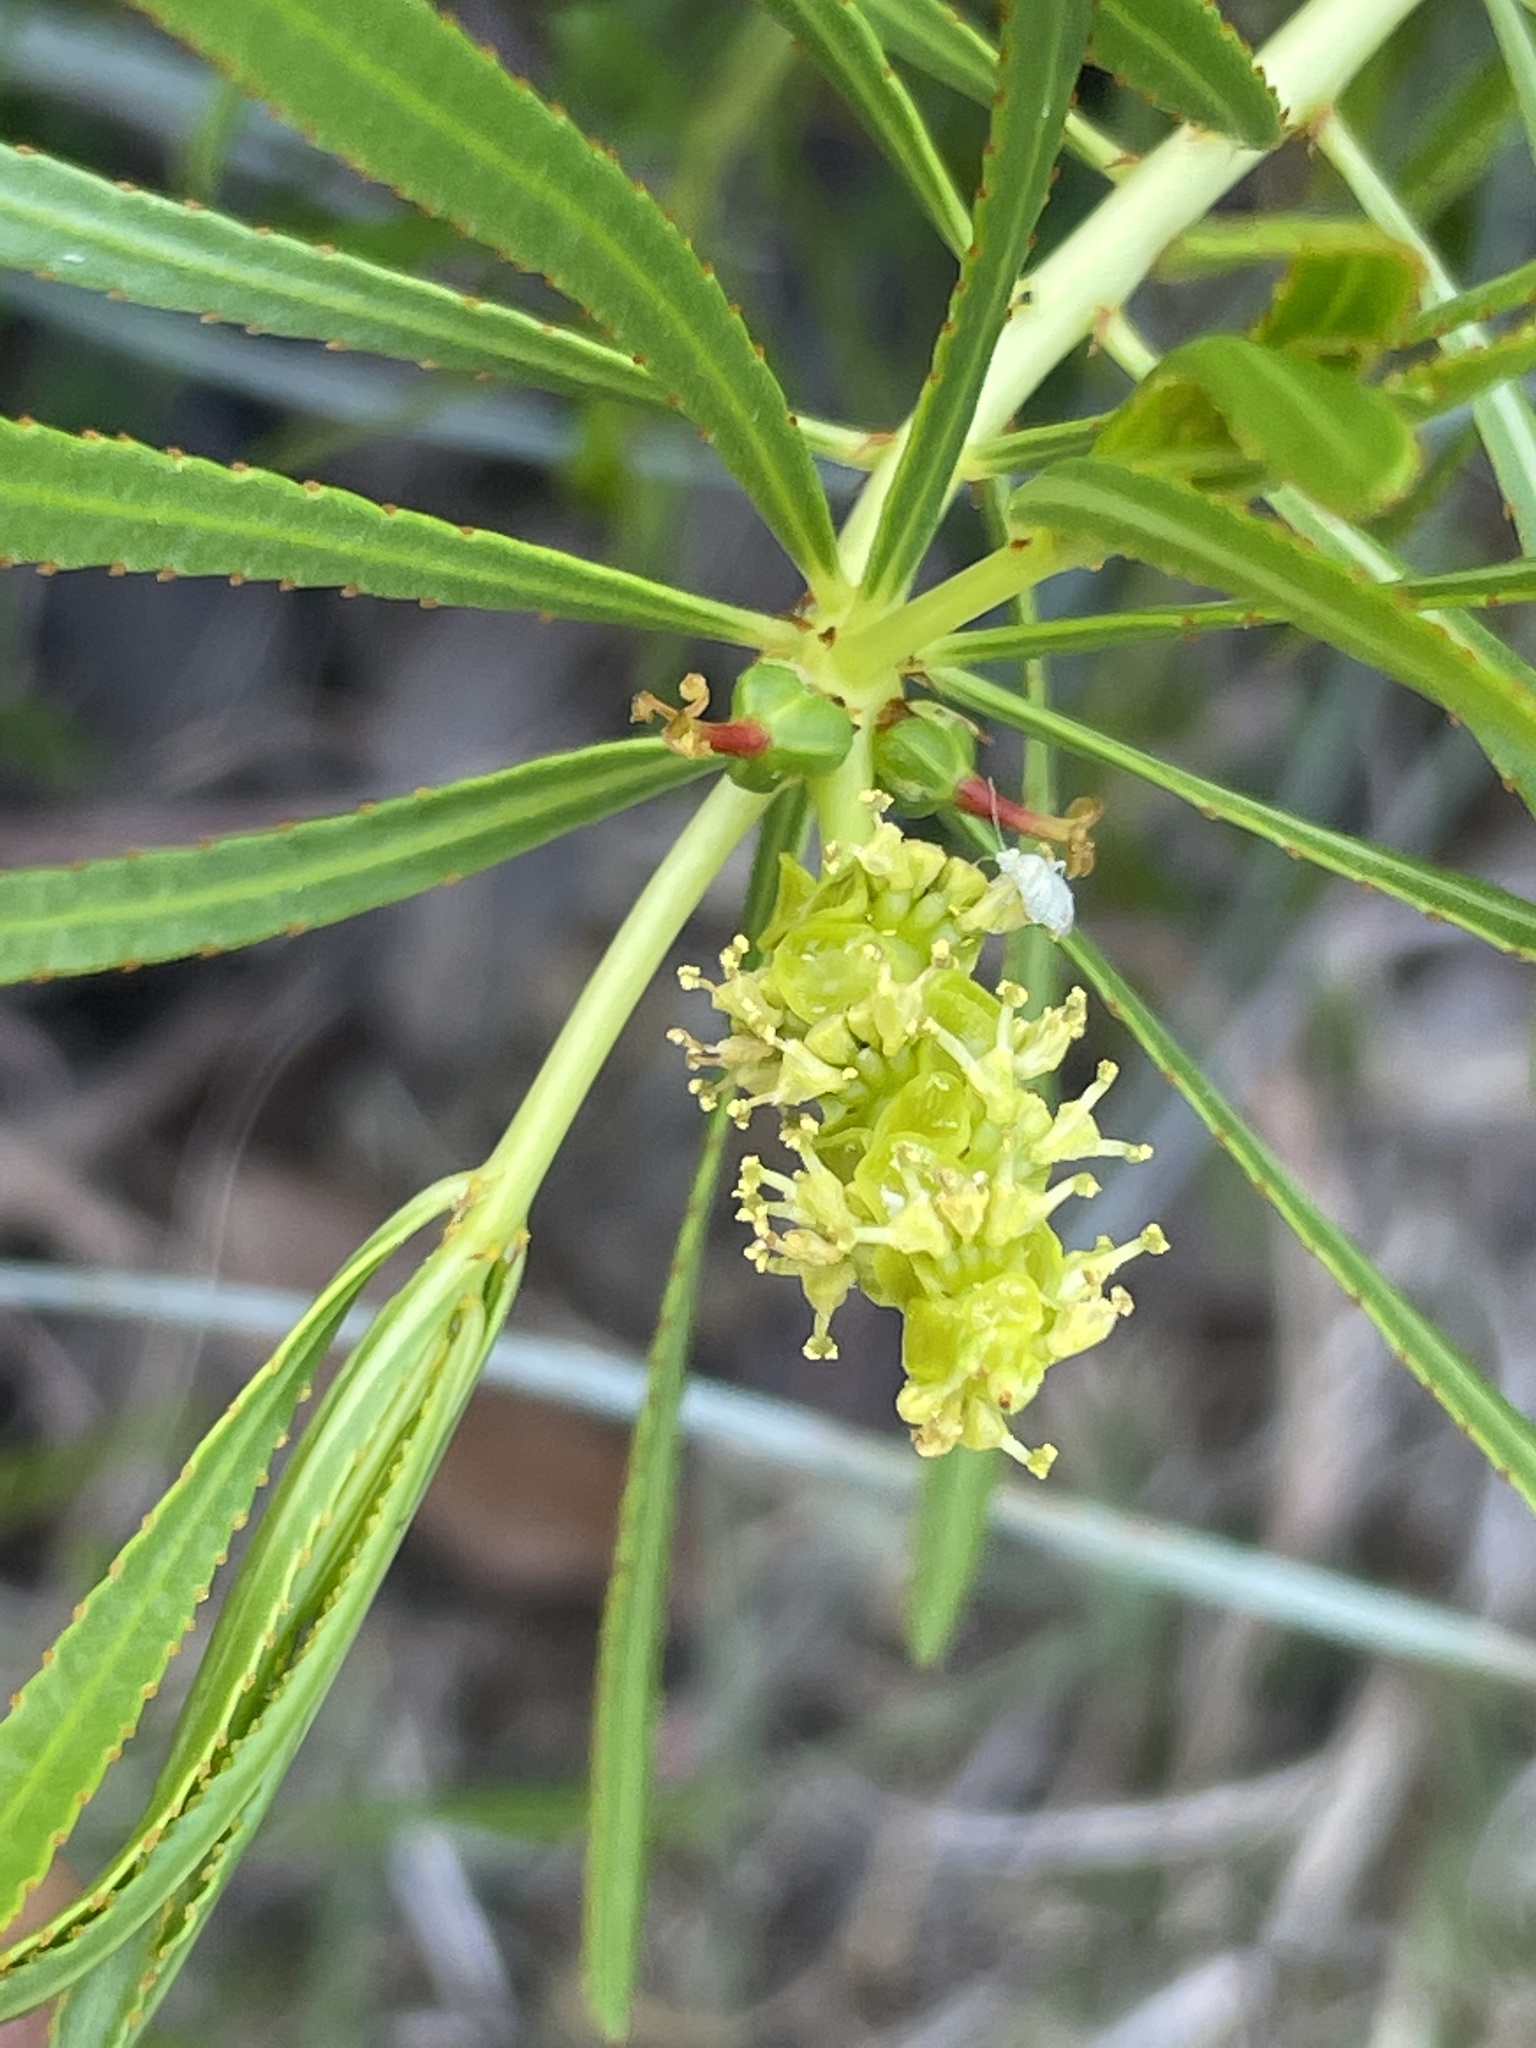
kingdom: Plantae
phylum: Tracheophyta
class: Magnoliopsida
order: Malpighiales
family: Euphorbiaceae
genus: Stillingia
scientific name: Stillingia texana
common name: Texas stillingia
